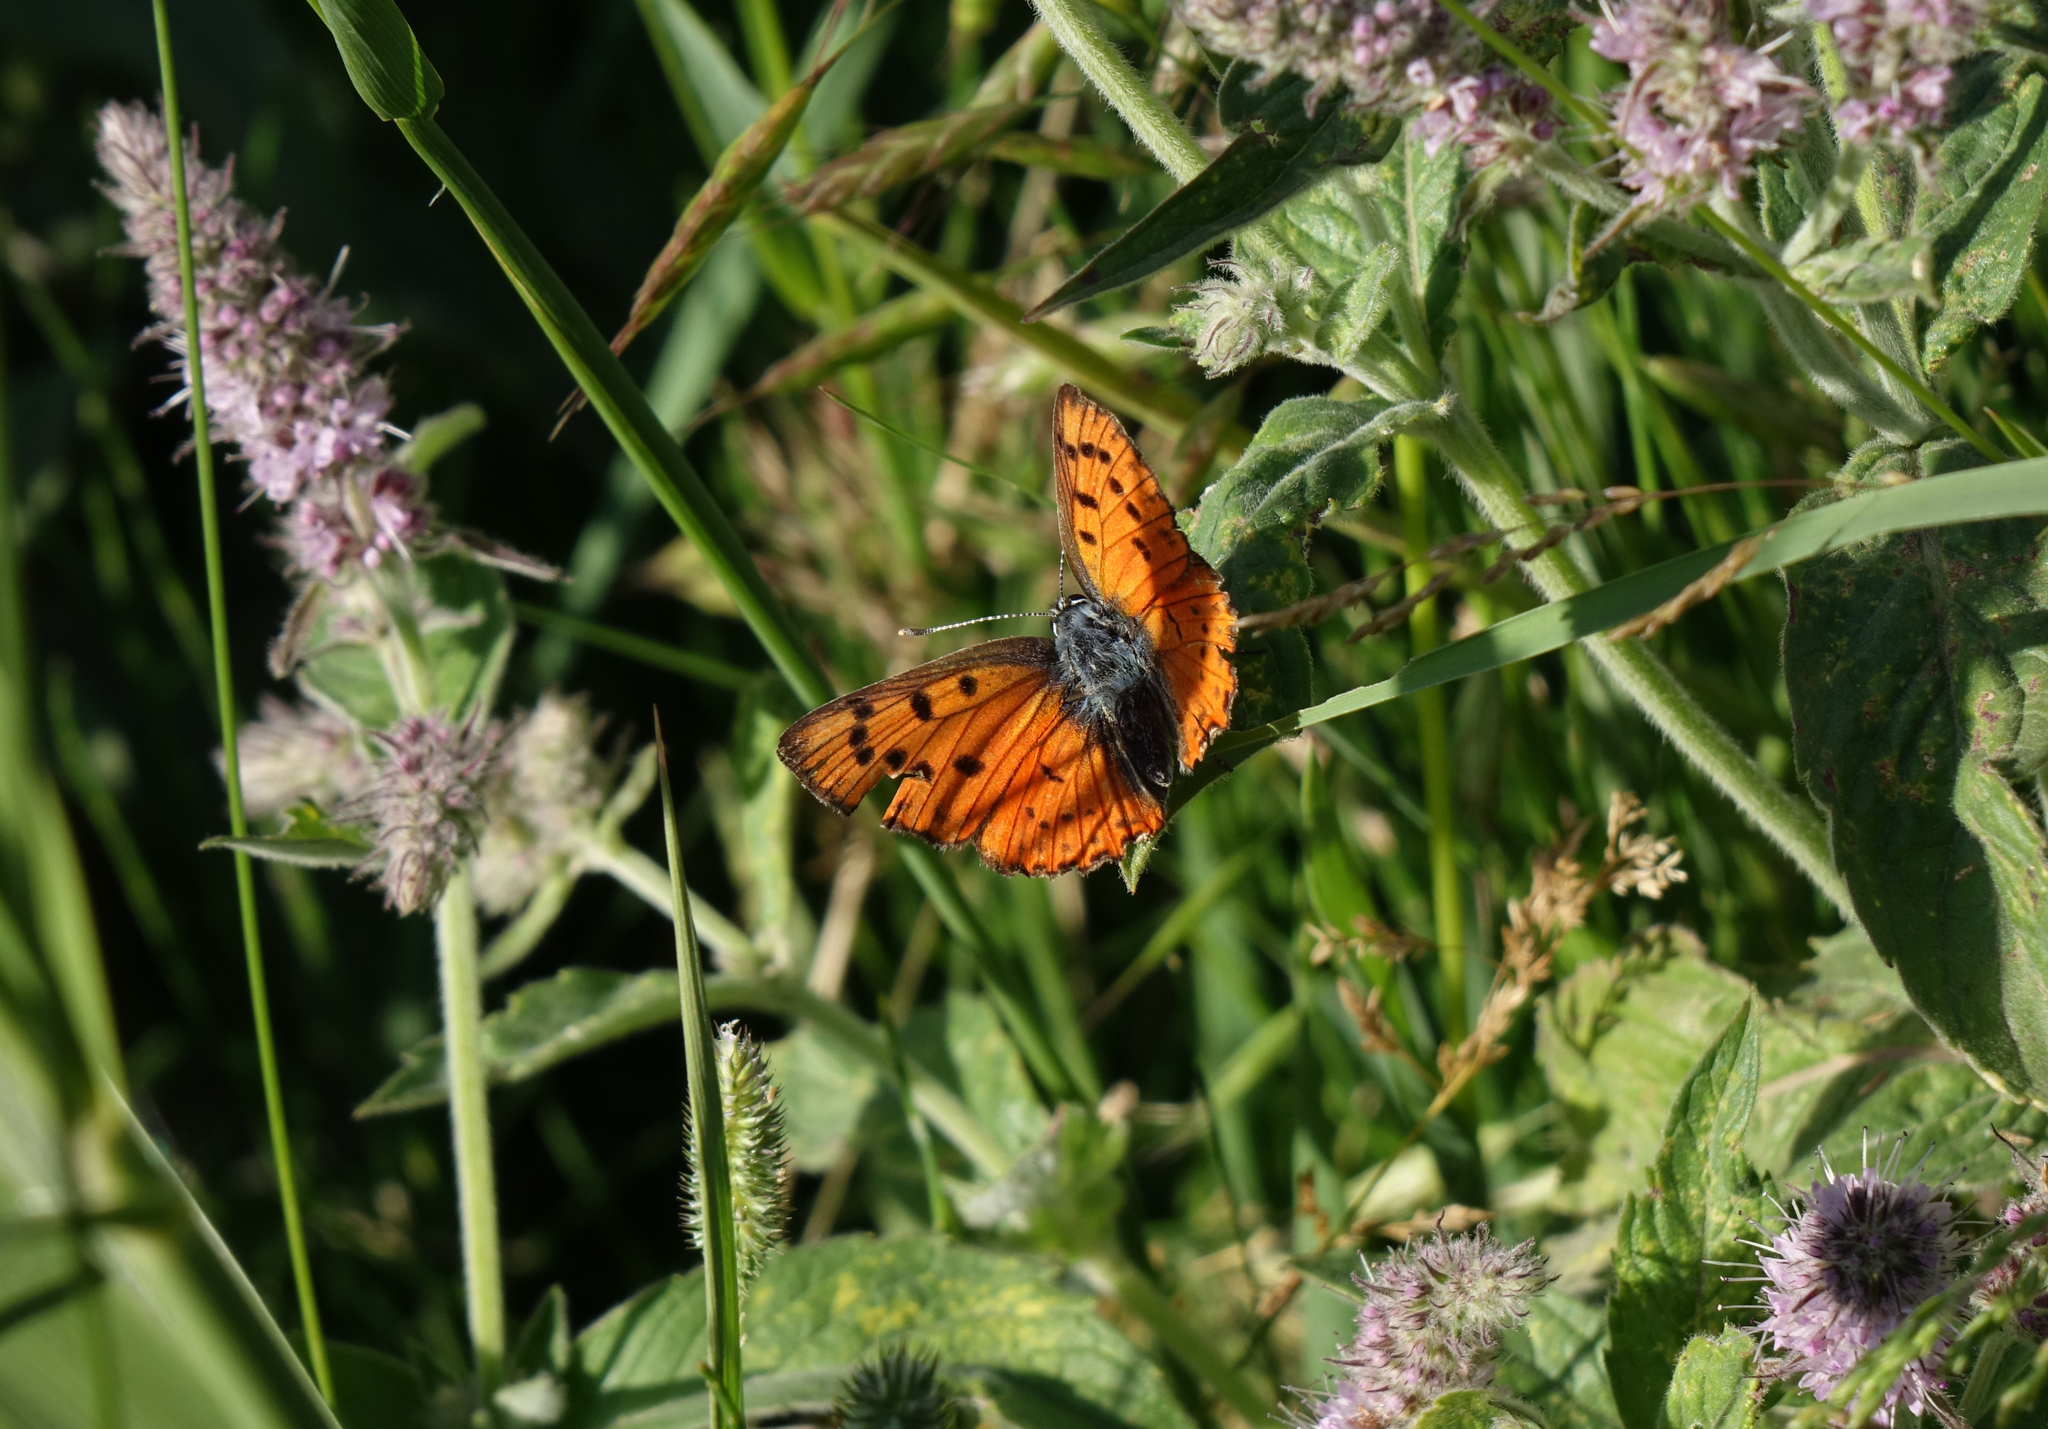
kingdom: Plantae
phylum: Tracheophyta
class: Magnoliopsida
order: Lamiales
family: Lamiaceae
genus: Mentha
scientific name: Mentha longifolia
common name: Horse mint
